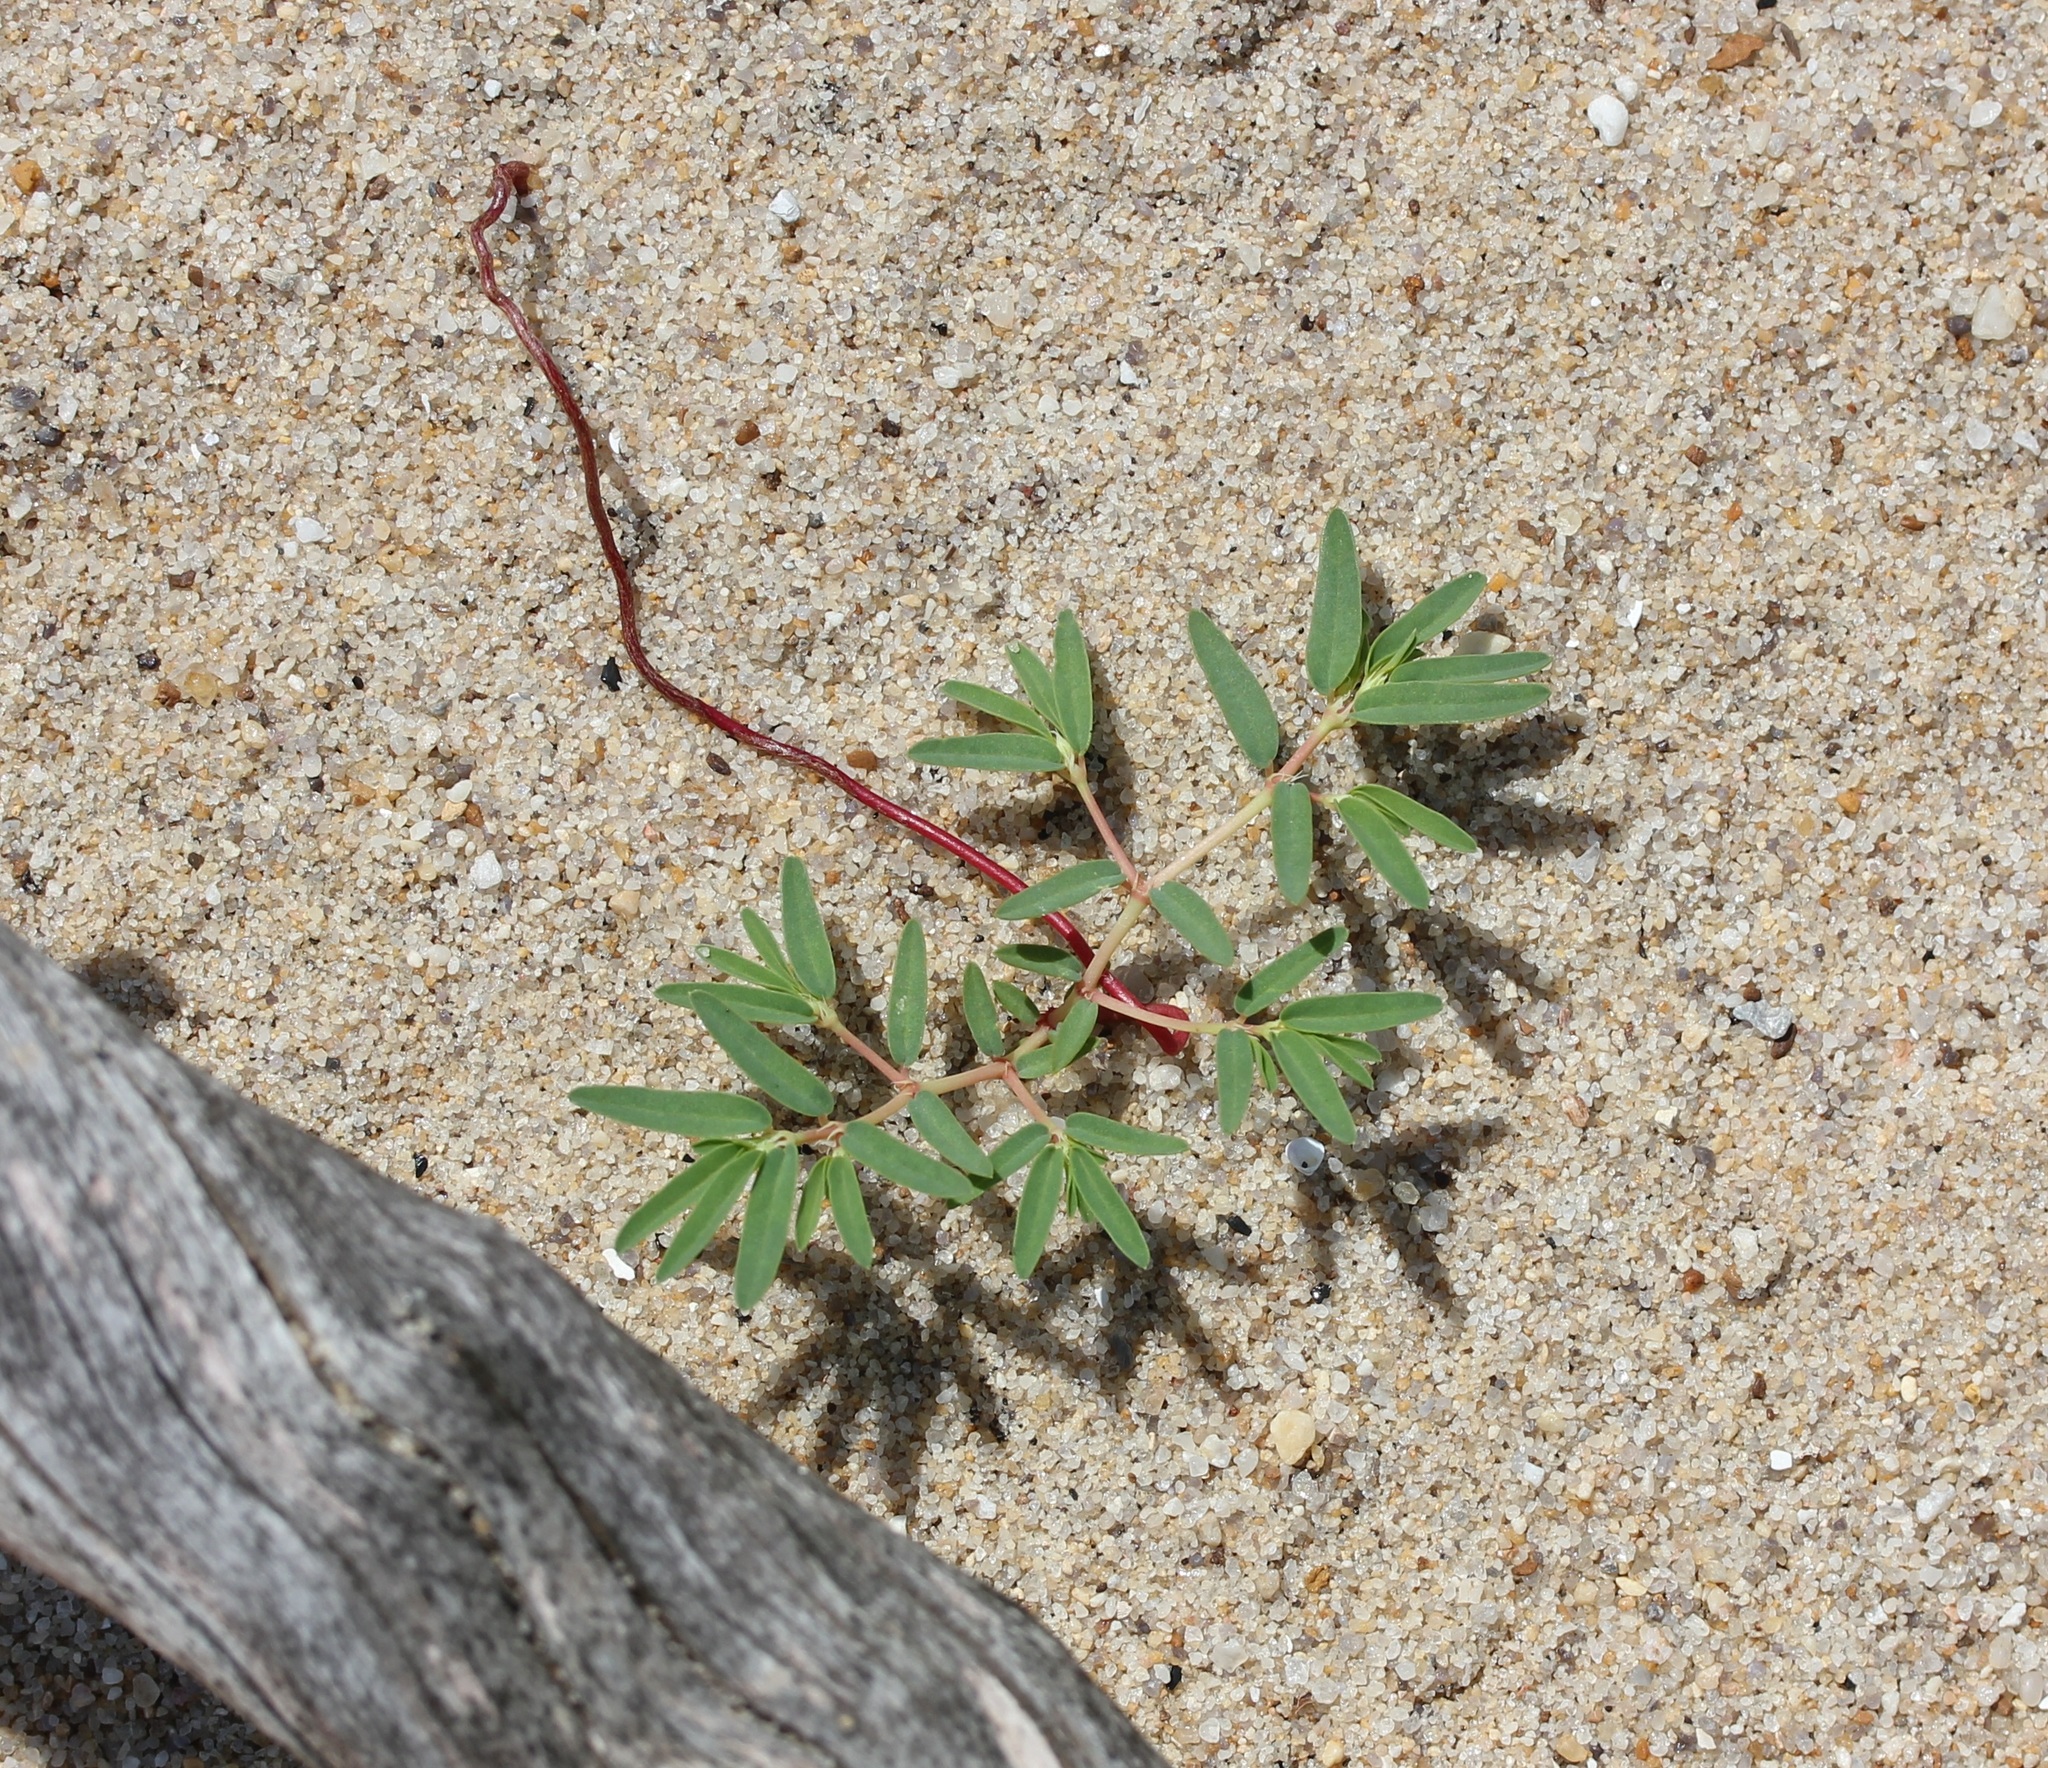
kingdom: Plantae
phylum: Tracheophyta
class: Magnoliopsida
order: Malpighiales
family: Euphorbiaceae
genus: Euphorbia
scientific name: Euphorbia polygonifolia
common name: Knotweed spurge
